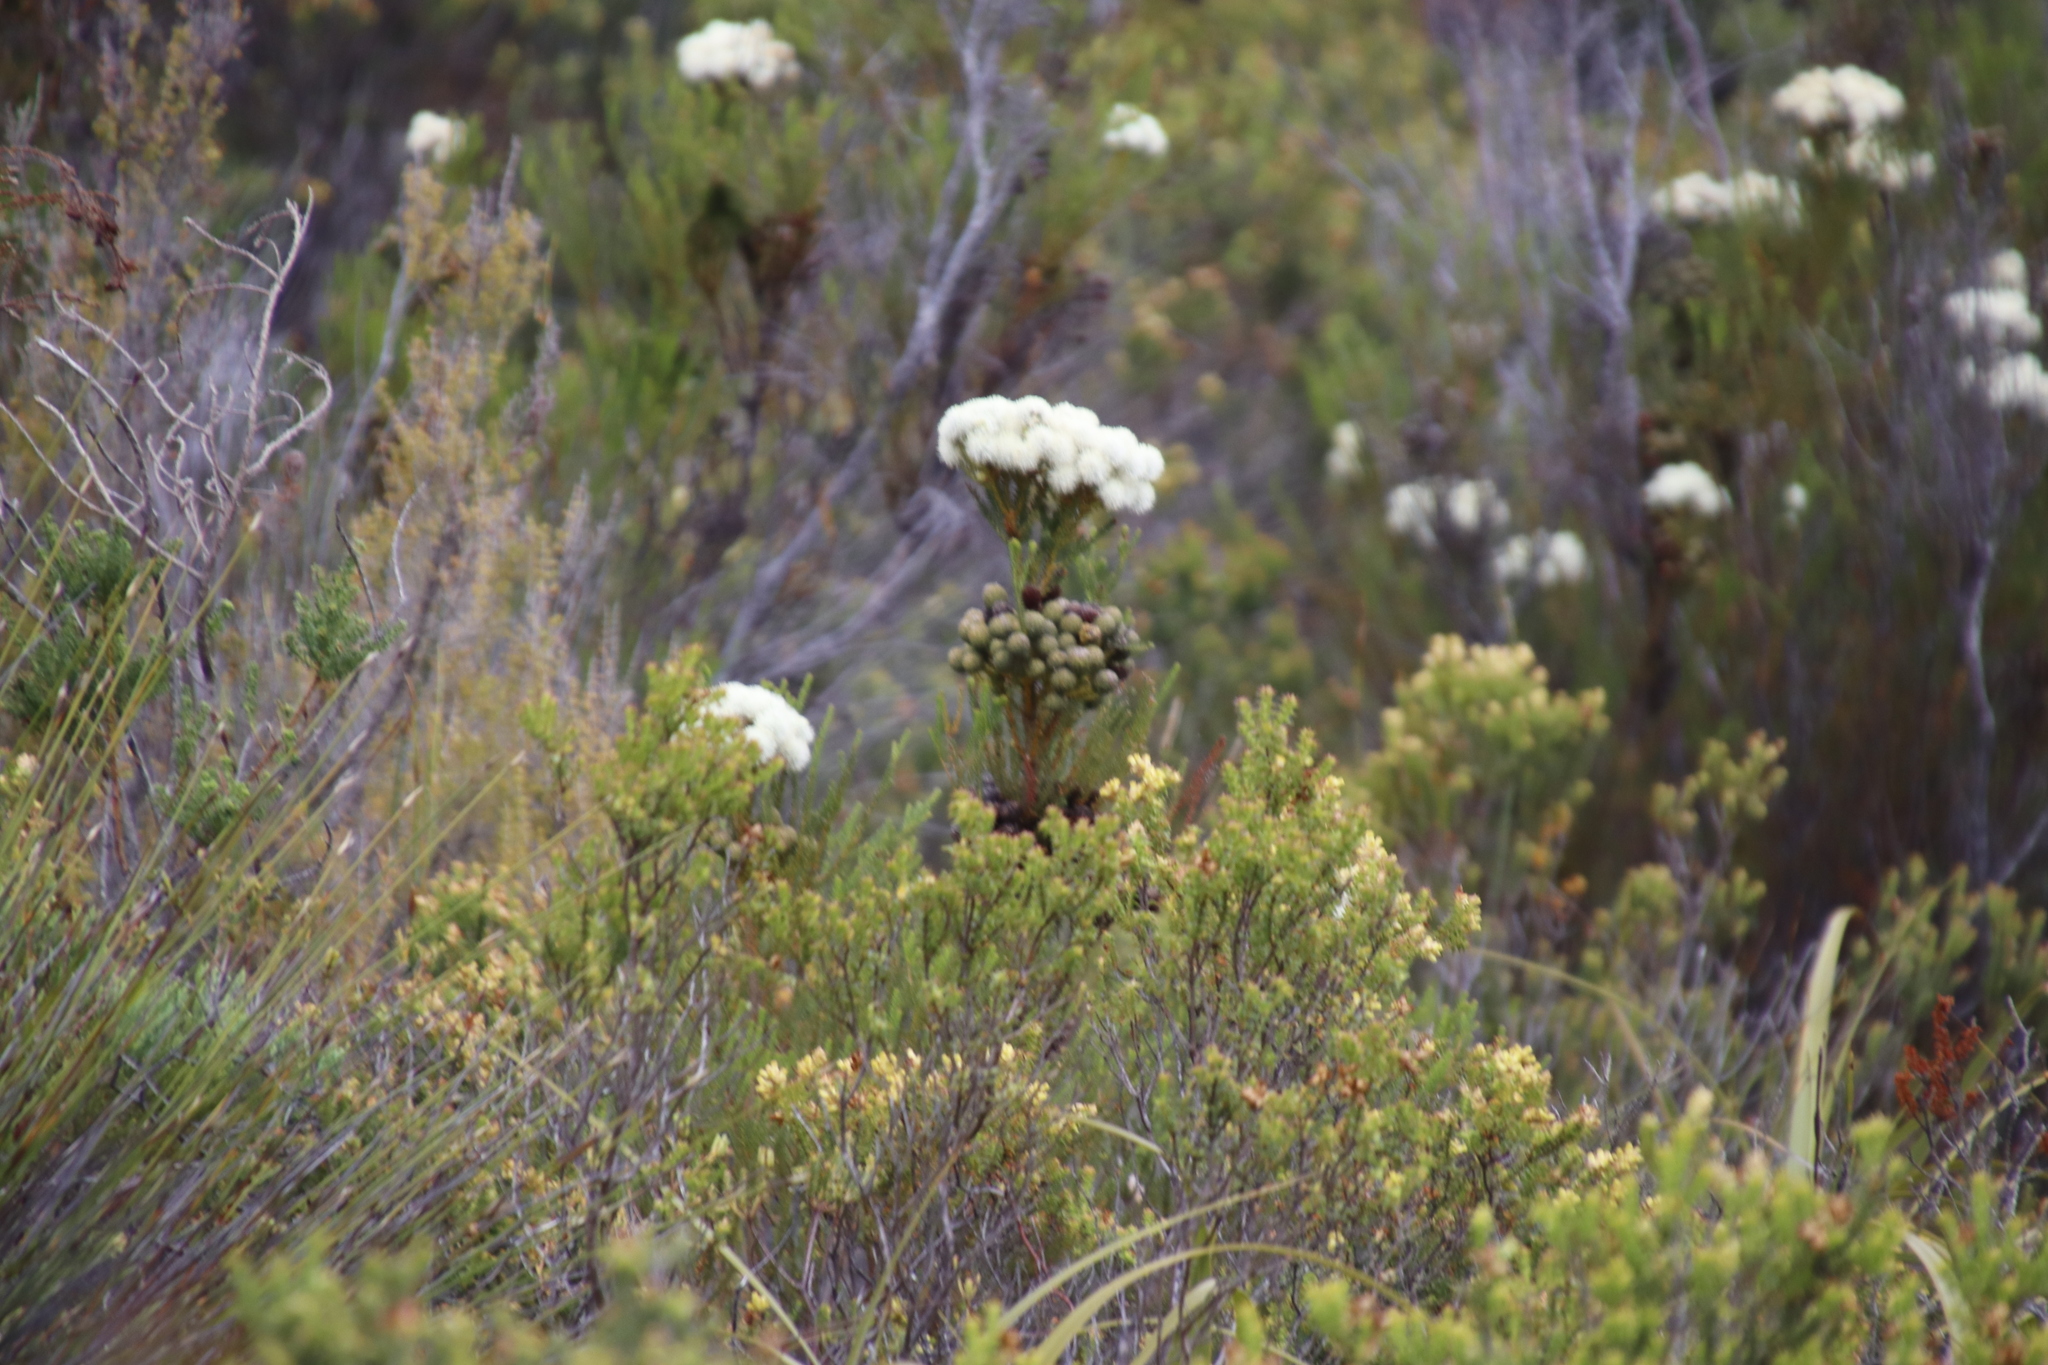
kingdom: Plantae
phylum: Tracheophyta
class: Magnoliopsida
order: Bruniales
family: Bruniaceae
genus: Berzelia
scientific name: Berzelia abrotanoides
